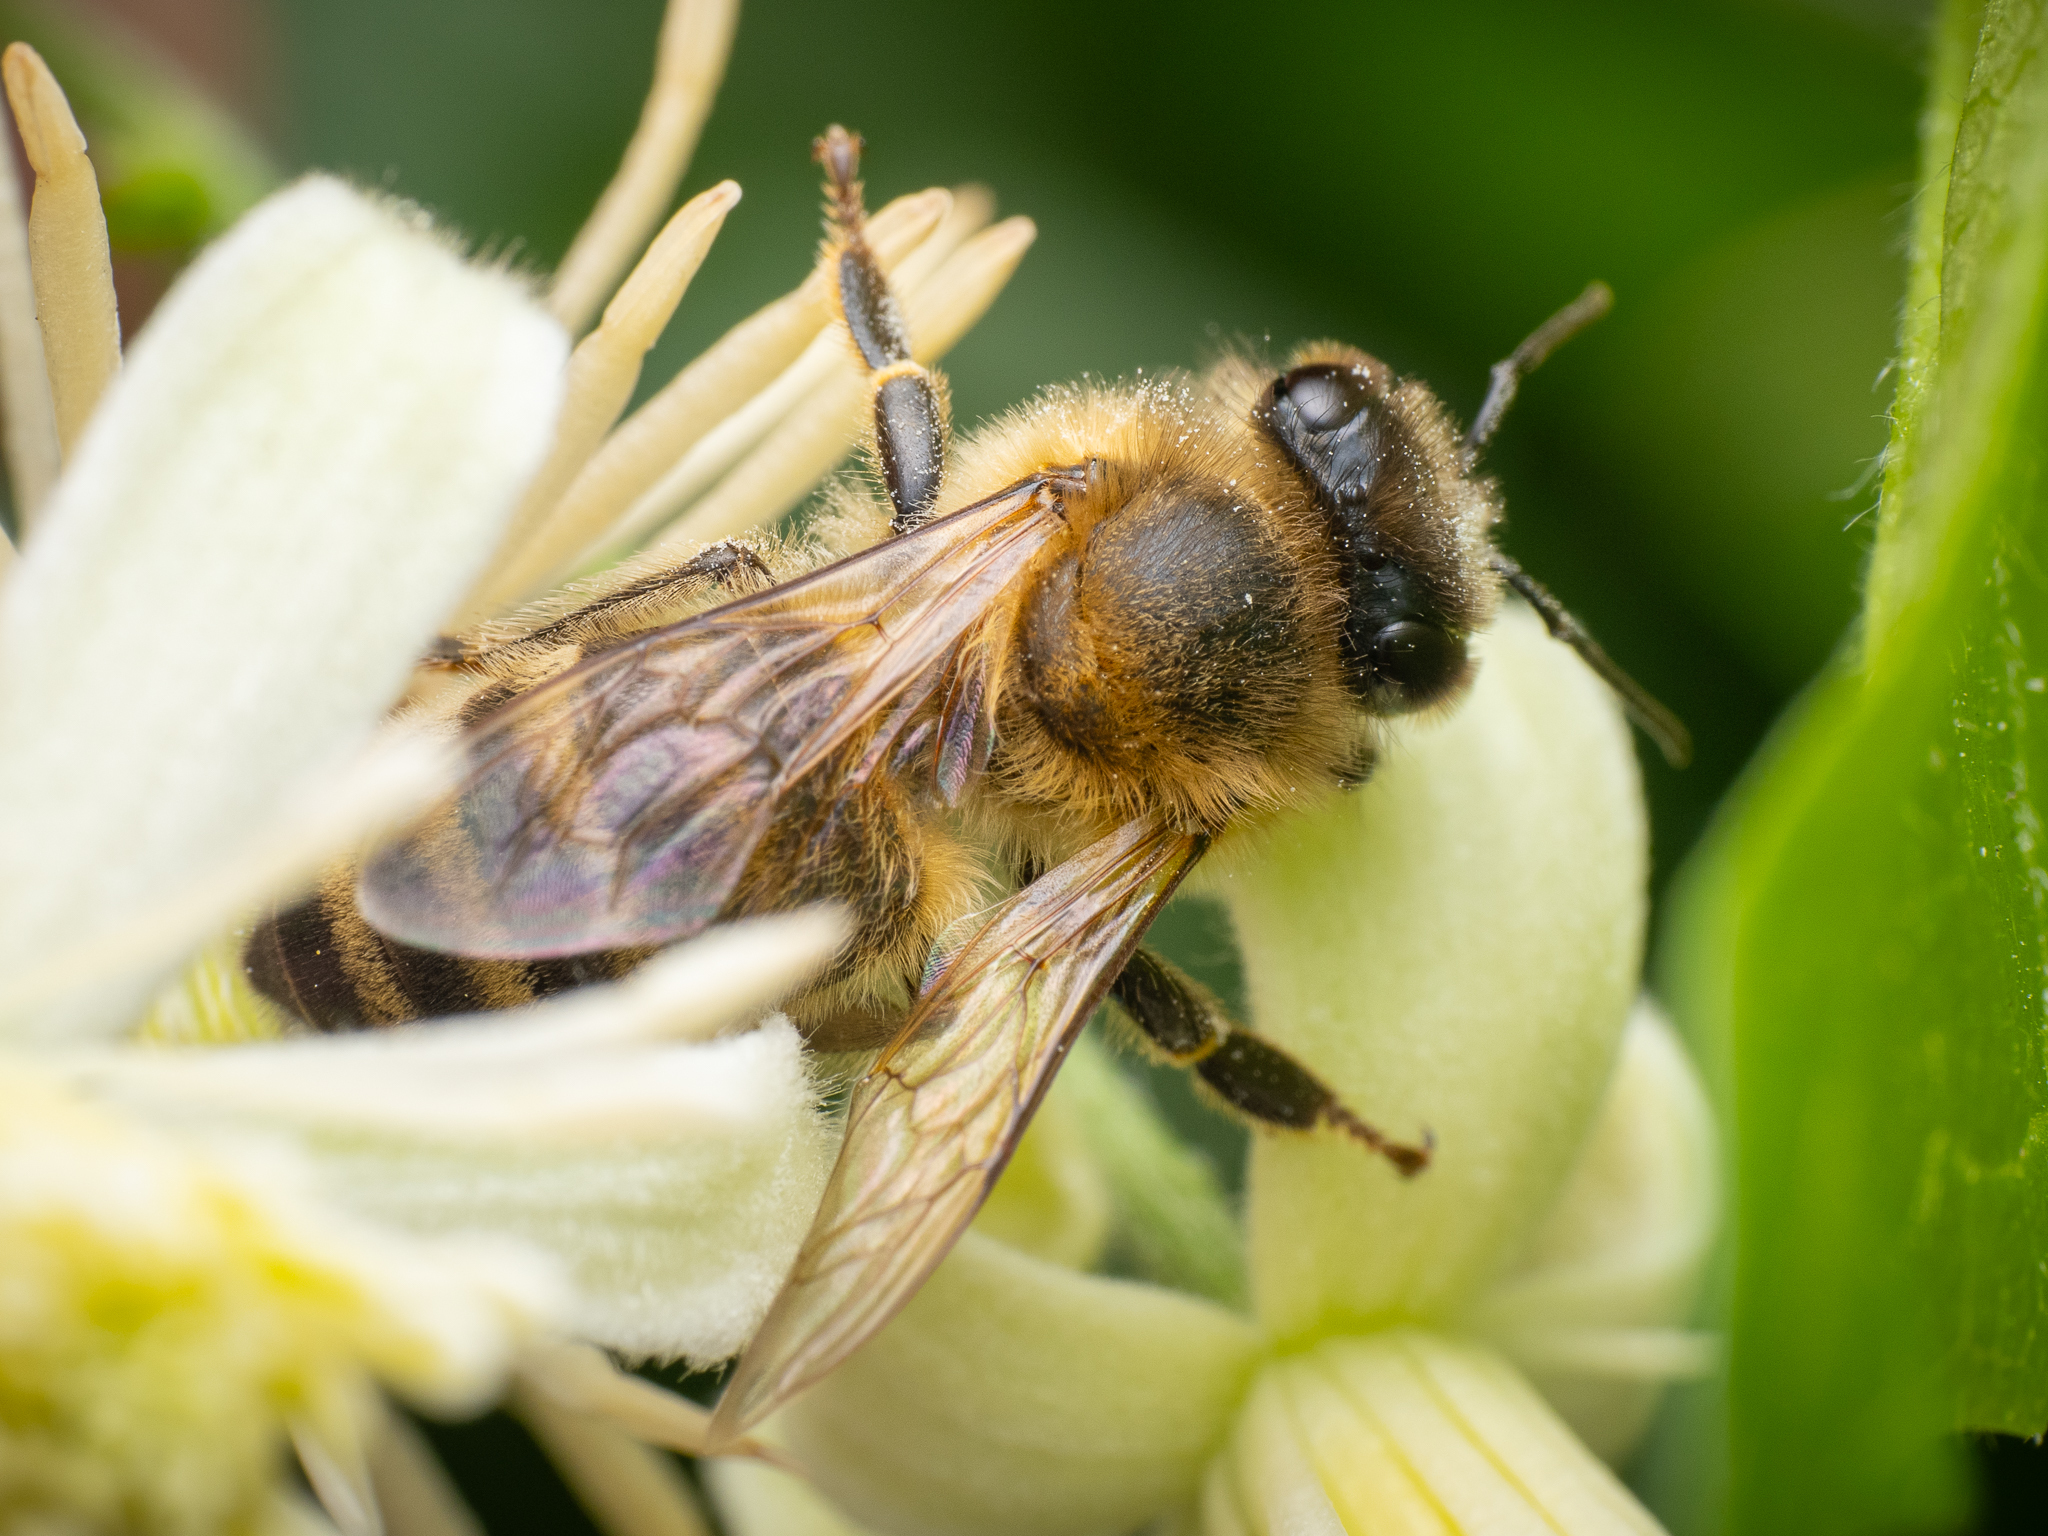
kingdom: Animalia
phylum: Arthropoda
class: Insecta
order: Hymenoptera
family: Apidae
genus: Apis
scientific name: Apis mellifera
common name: Honey bee
